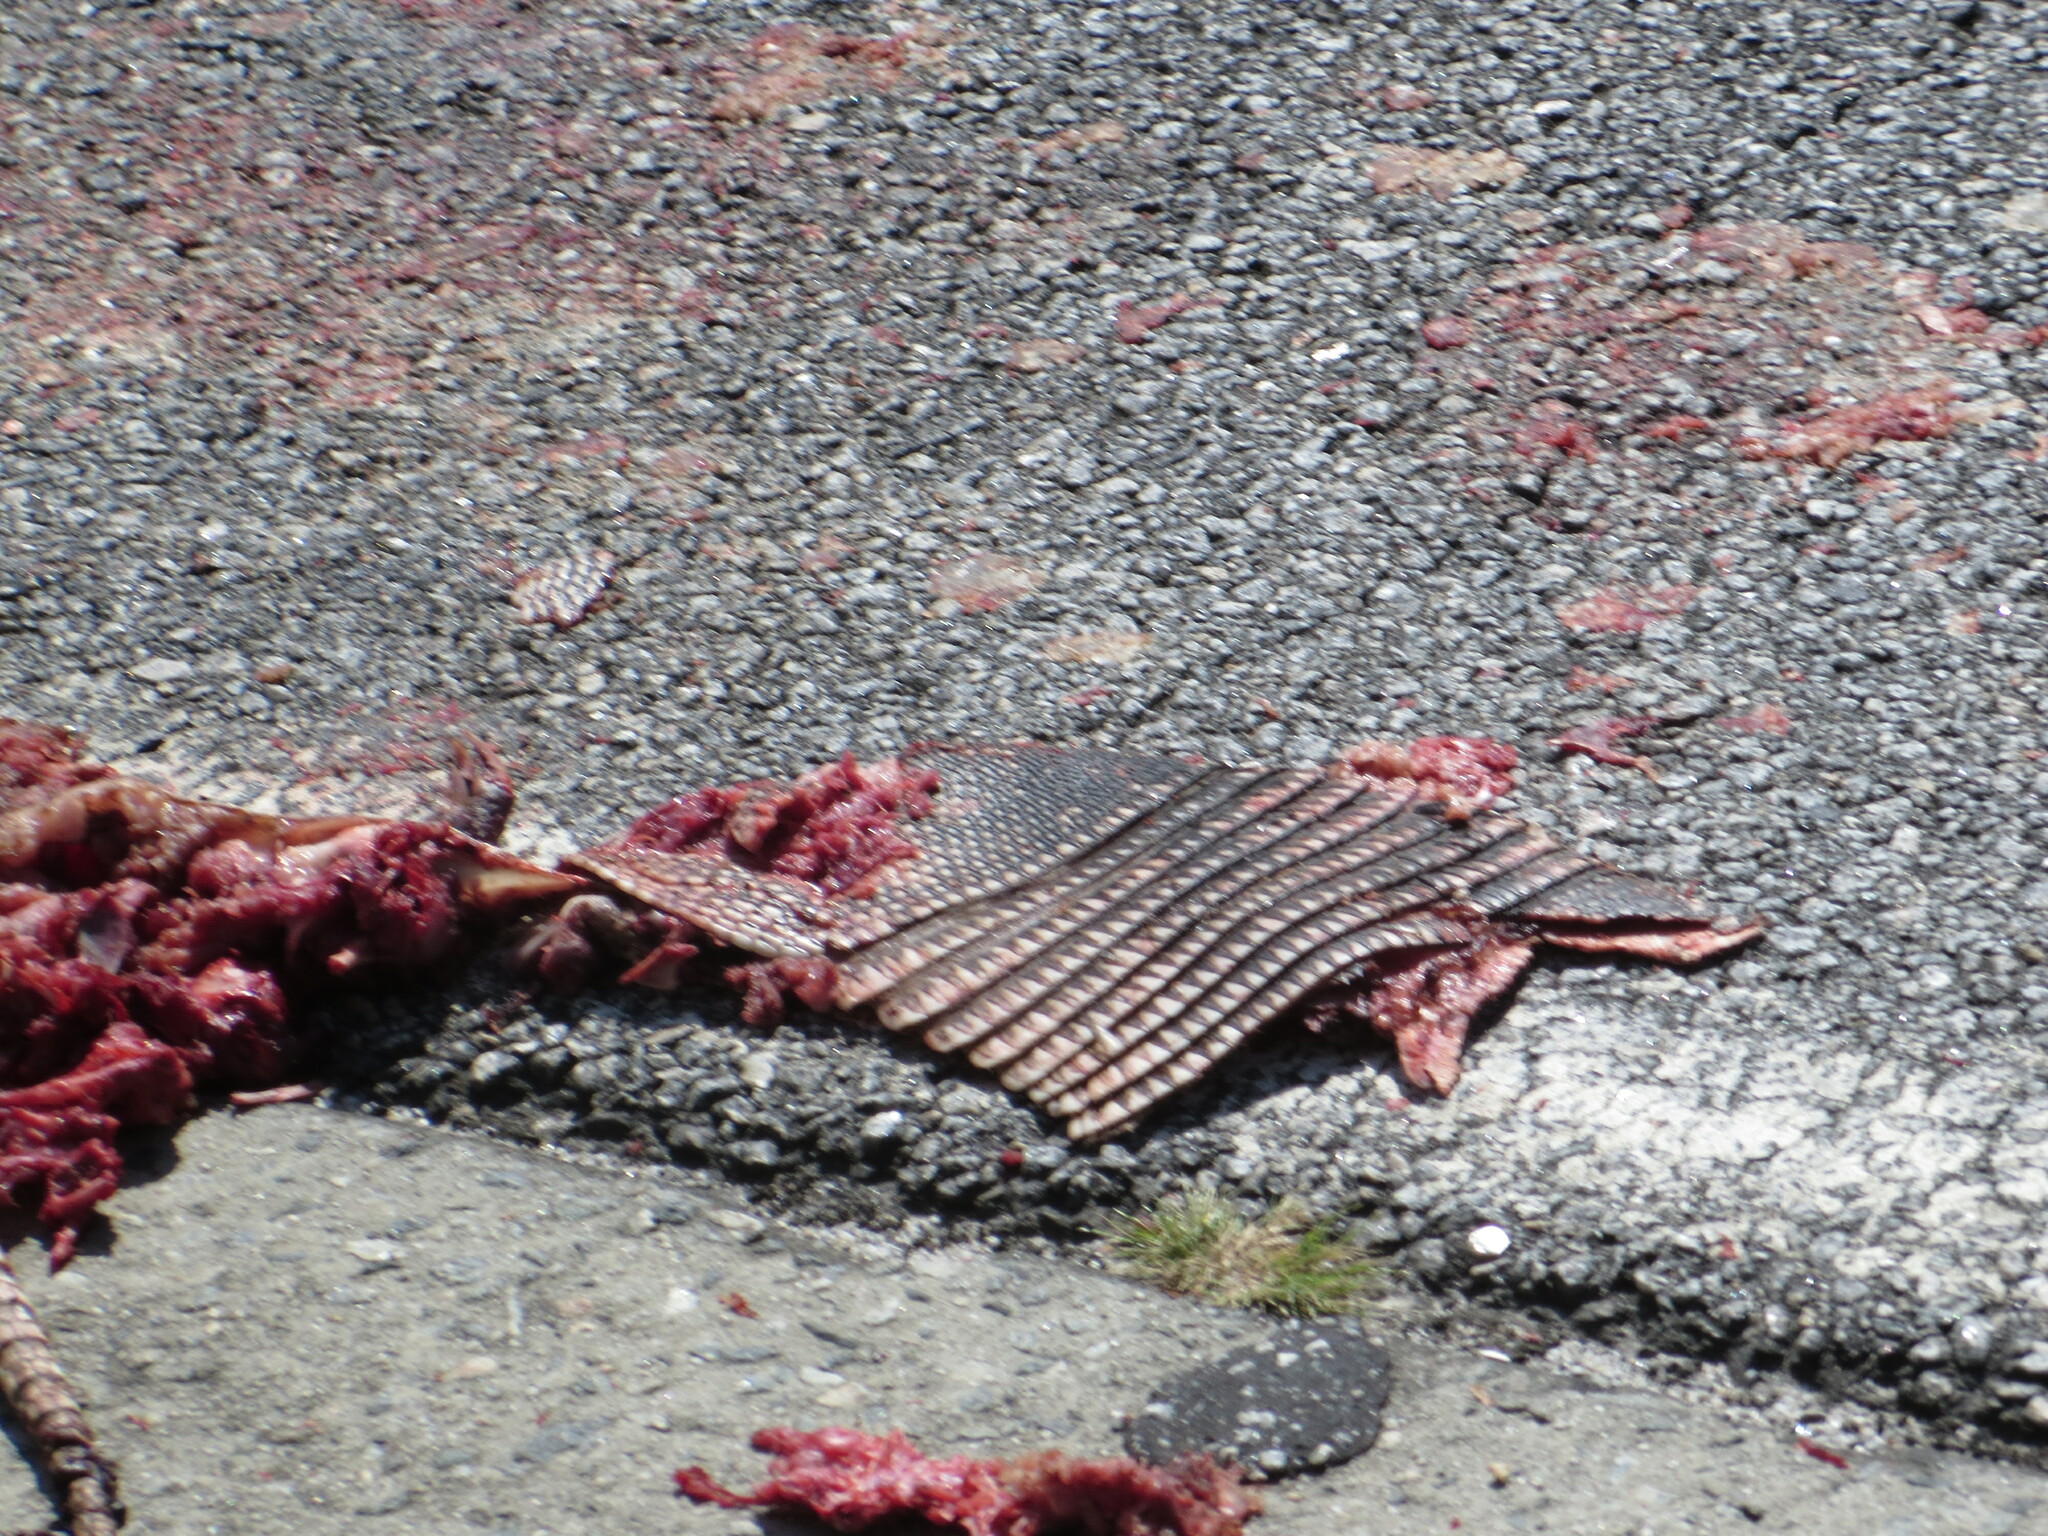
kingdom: Animalia
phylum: Chordata
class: Mammalia
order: Cingulata
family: Dasypodidae
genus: Dasypus
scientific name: Dasypus novemcinctus
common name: Nine-banded armadillo
